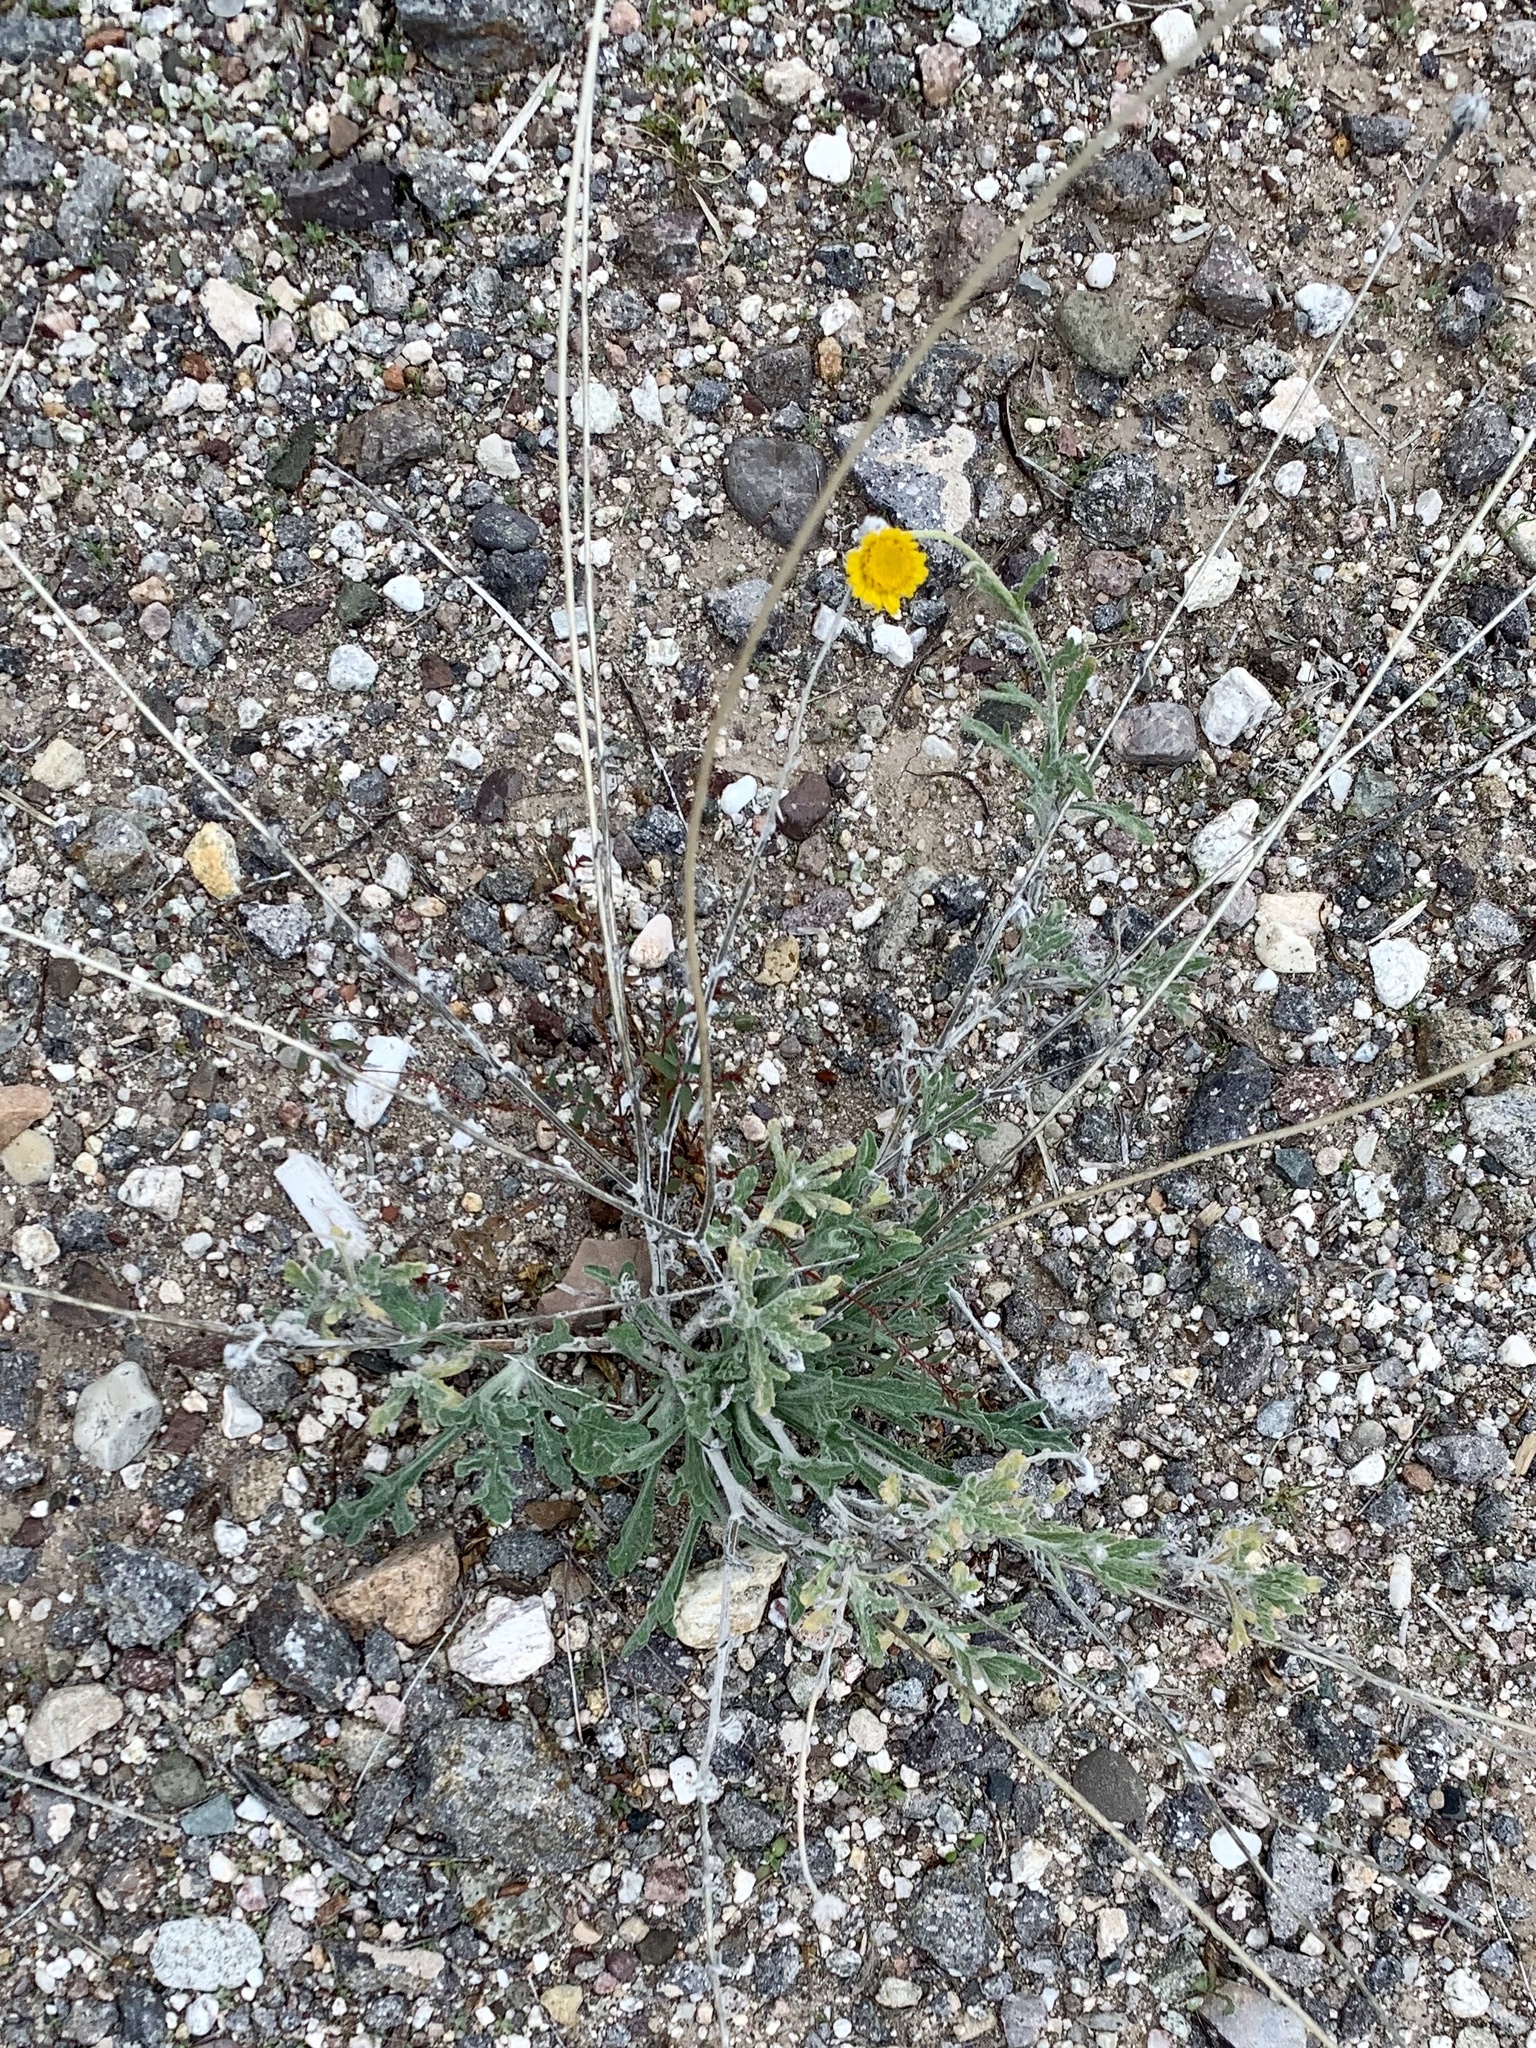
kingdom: Plantae
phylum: Tracheophyta
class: Magnoliopsida
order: Asterales
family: Asteraceae
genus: Baileya
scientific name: Baileya multiradiata
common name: Desert-marigold
